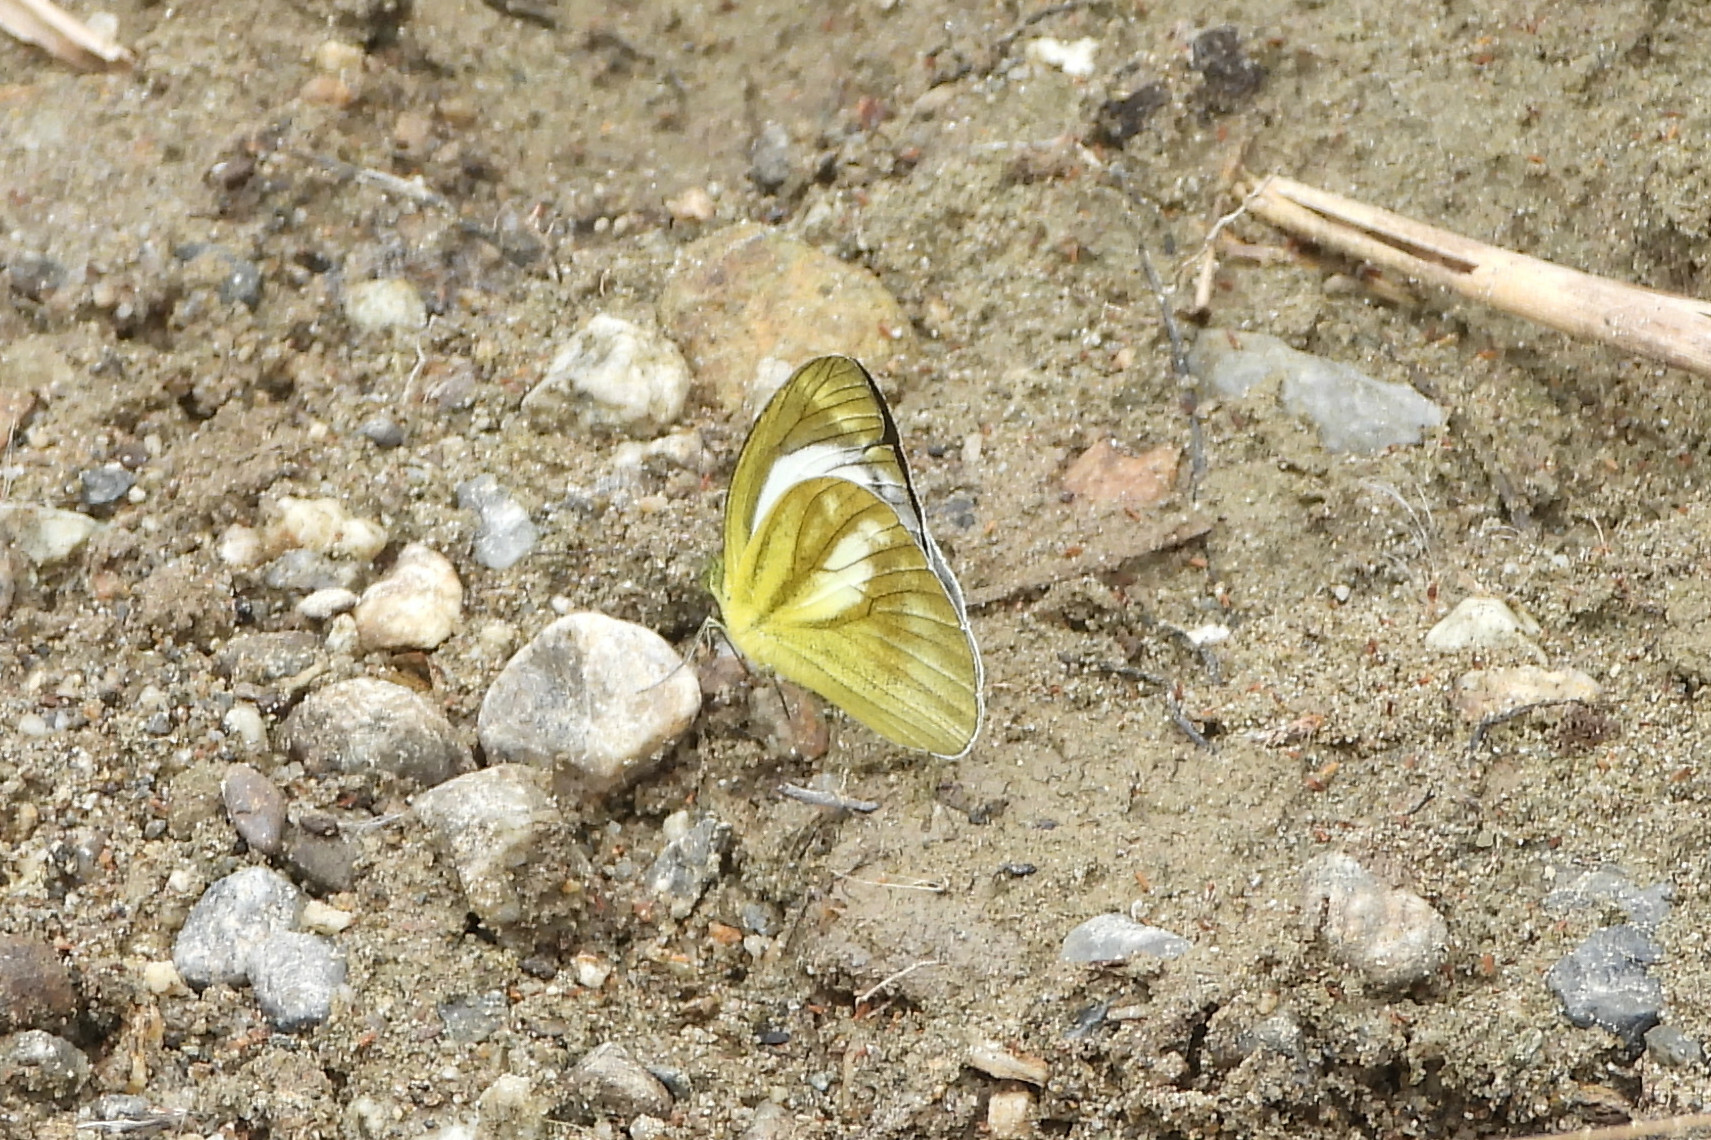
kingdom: Animalia
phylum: Arthropoda
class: Insecta
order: Lepidoptera
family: Pieridae
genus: Cepora
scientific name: Cepora nadina
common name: Lesser gull
